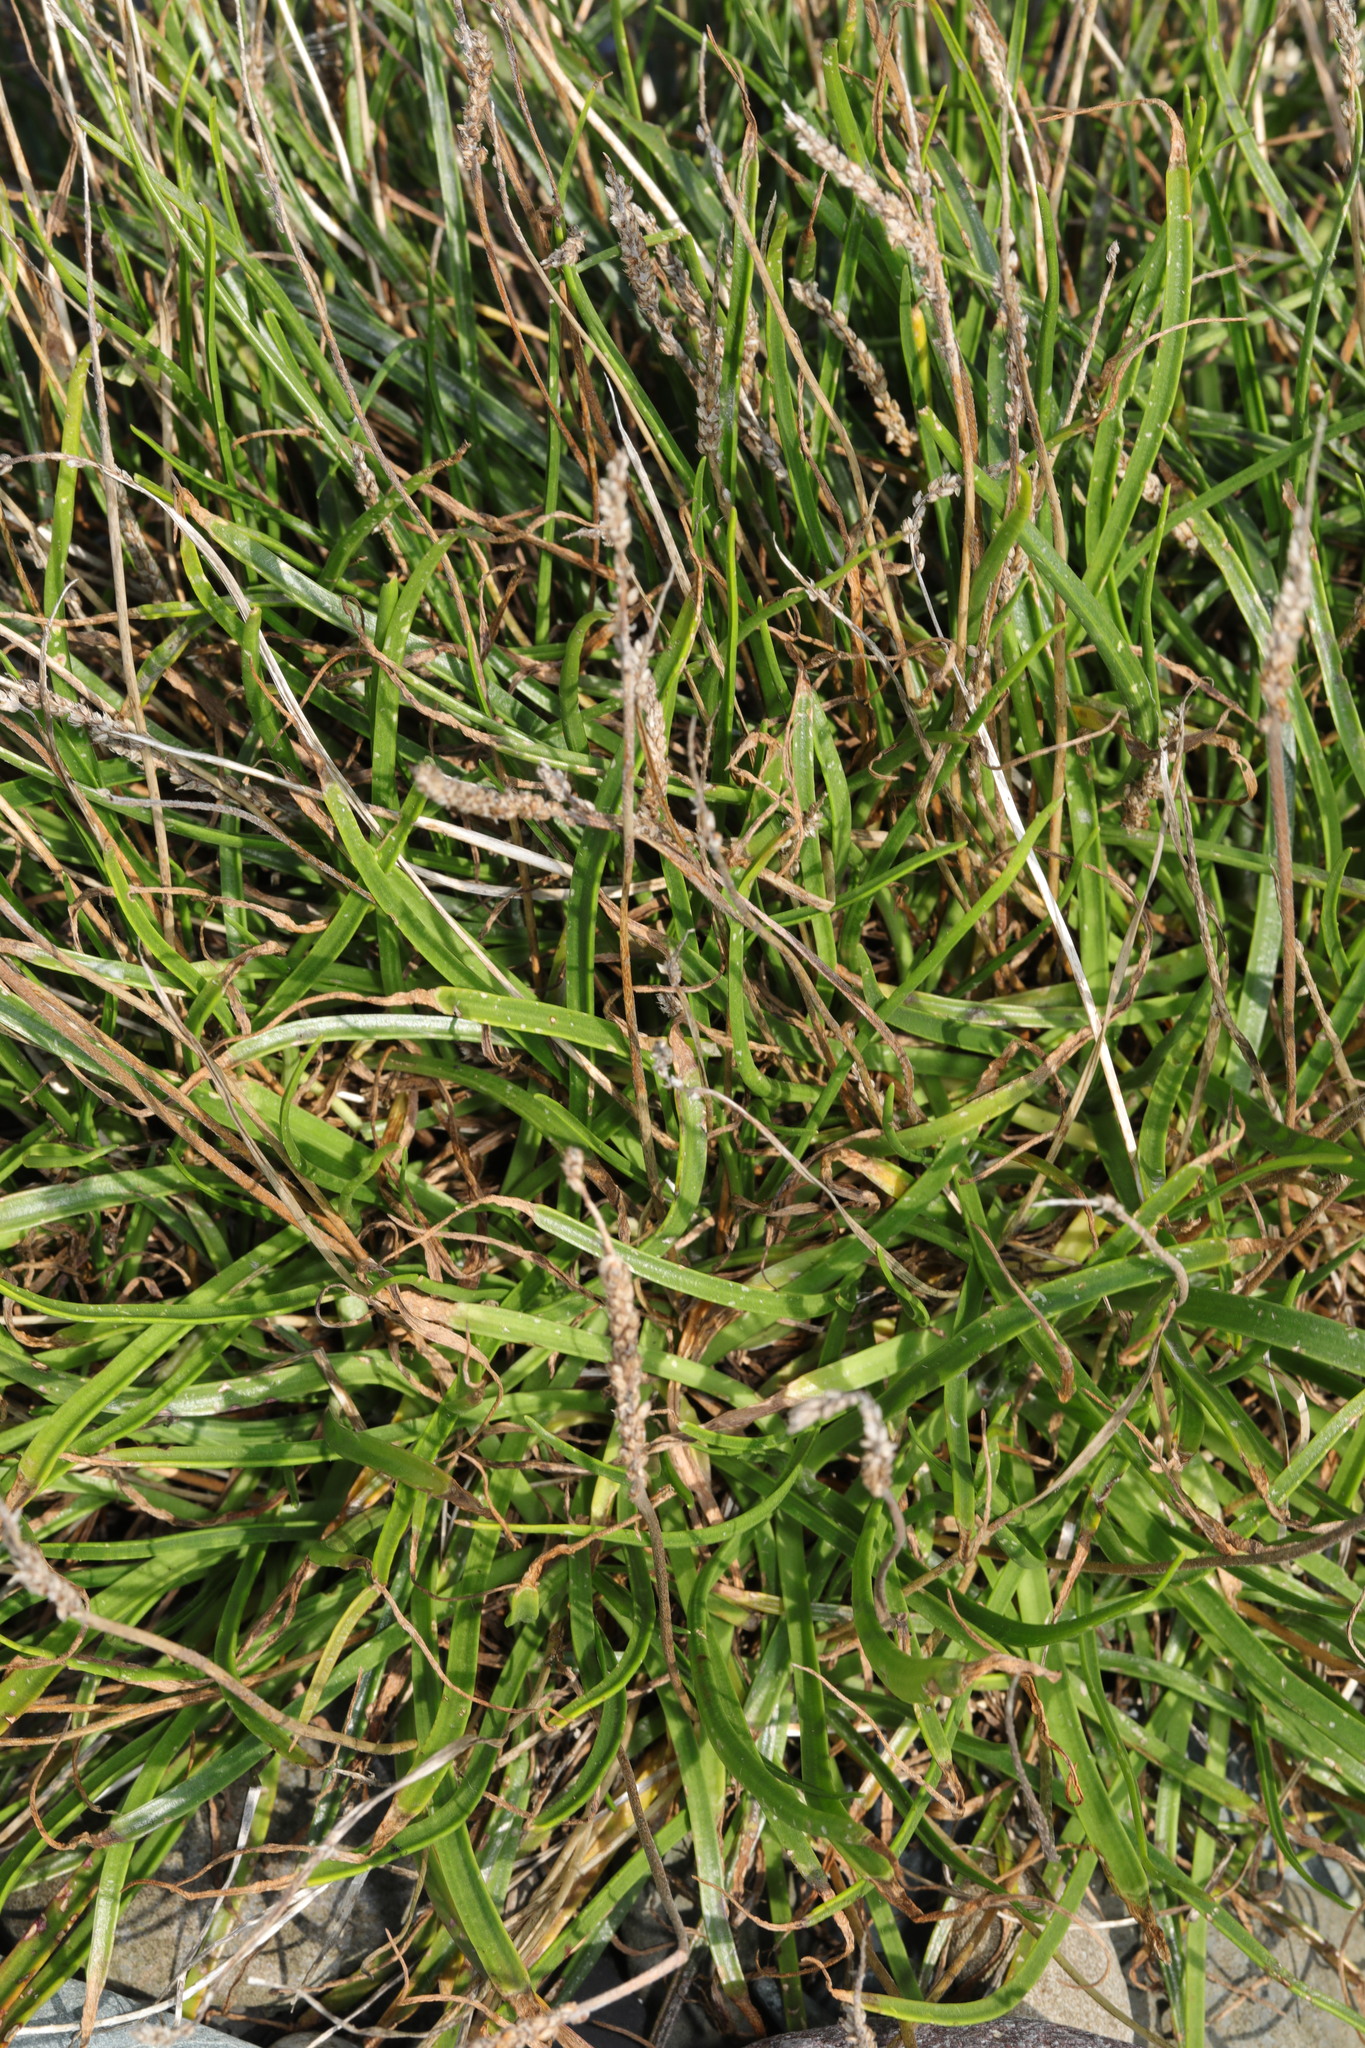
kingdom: Plantae
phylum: Tracheophyta
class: Magnoliopsida
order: Lamiales
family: Plantaginaceae
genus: Plantago
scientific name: Plantago maritima
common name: Sea plantain
